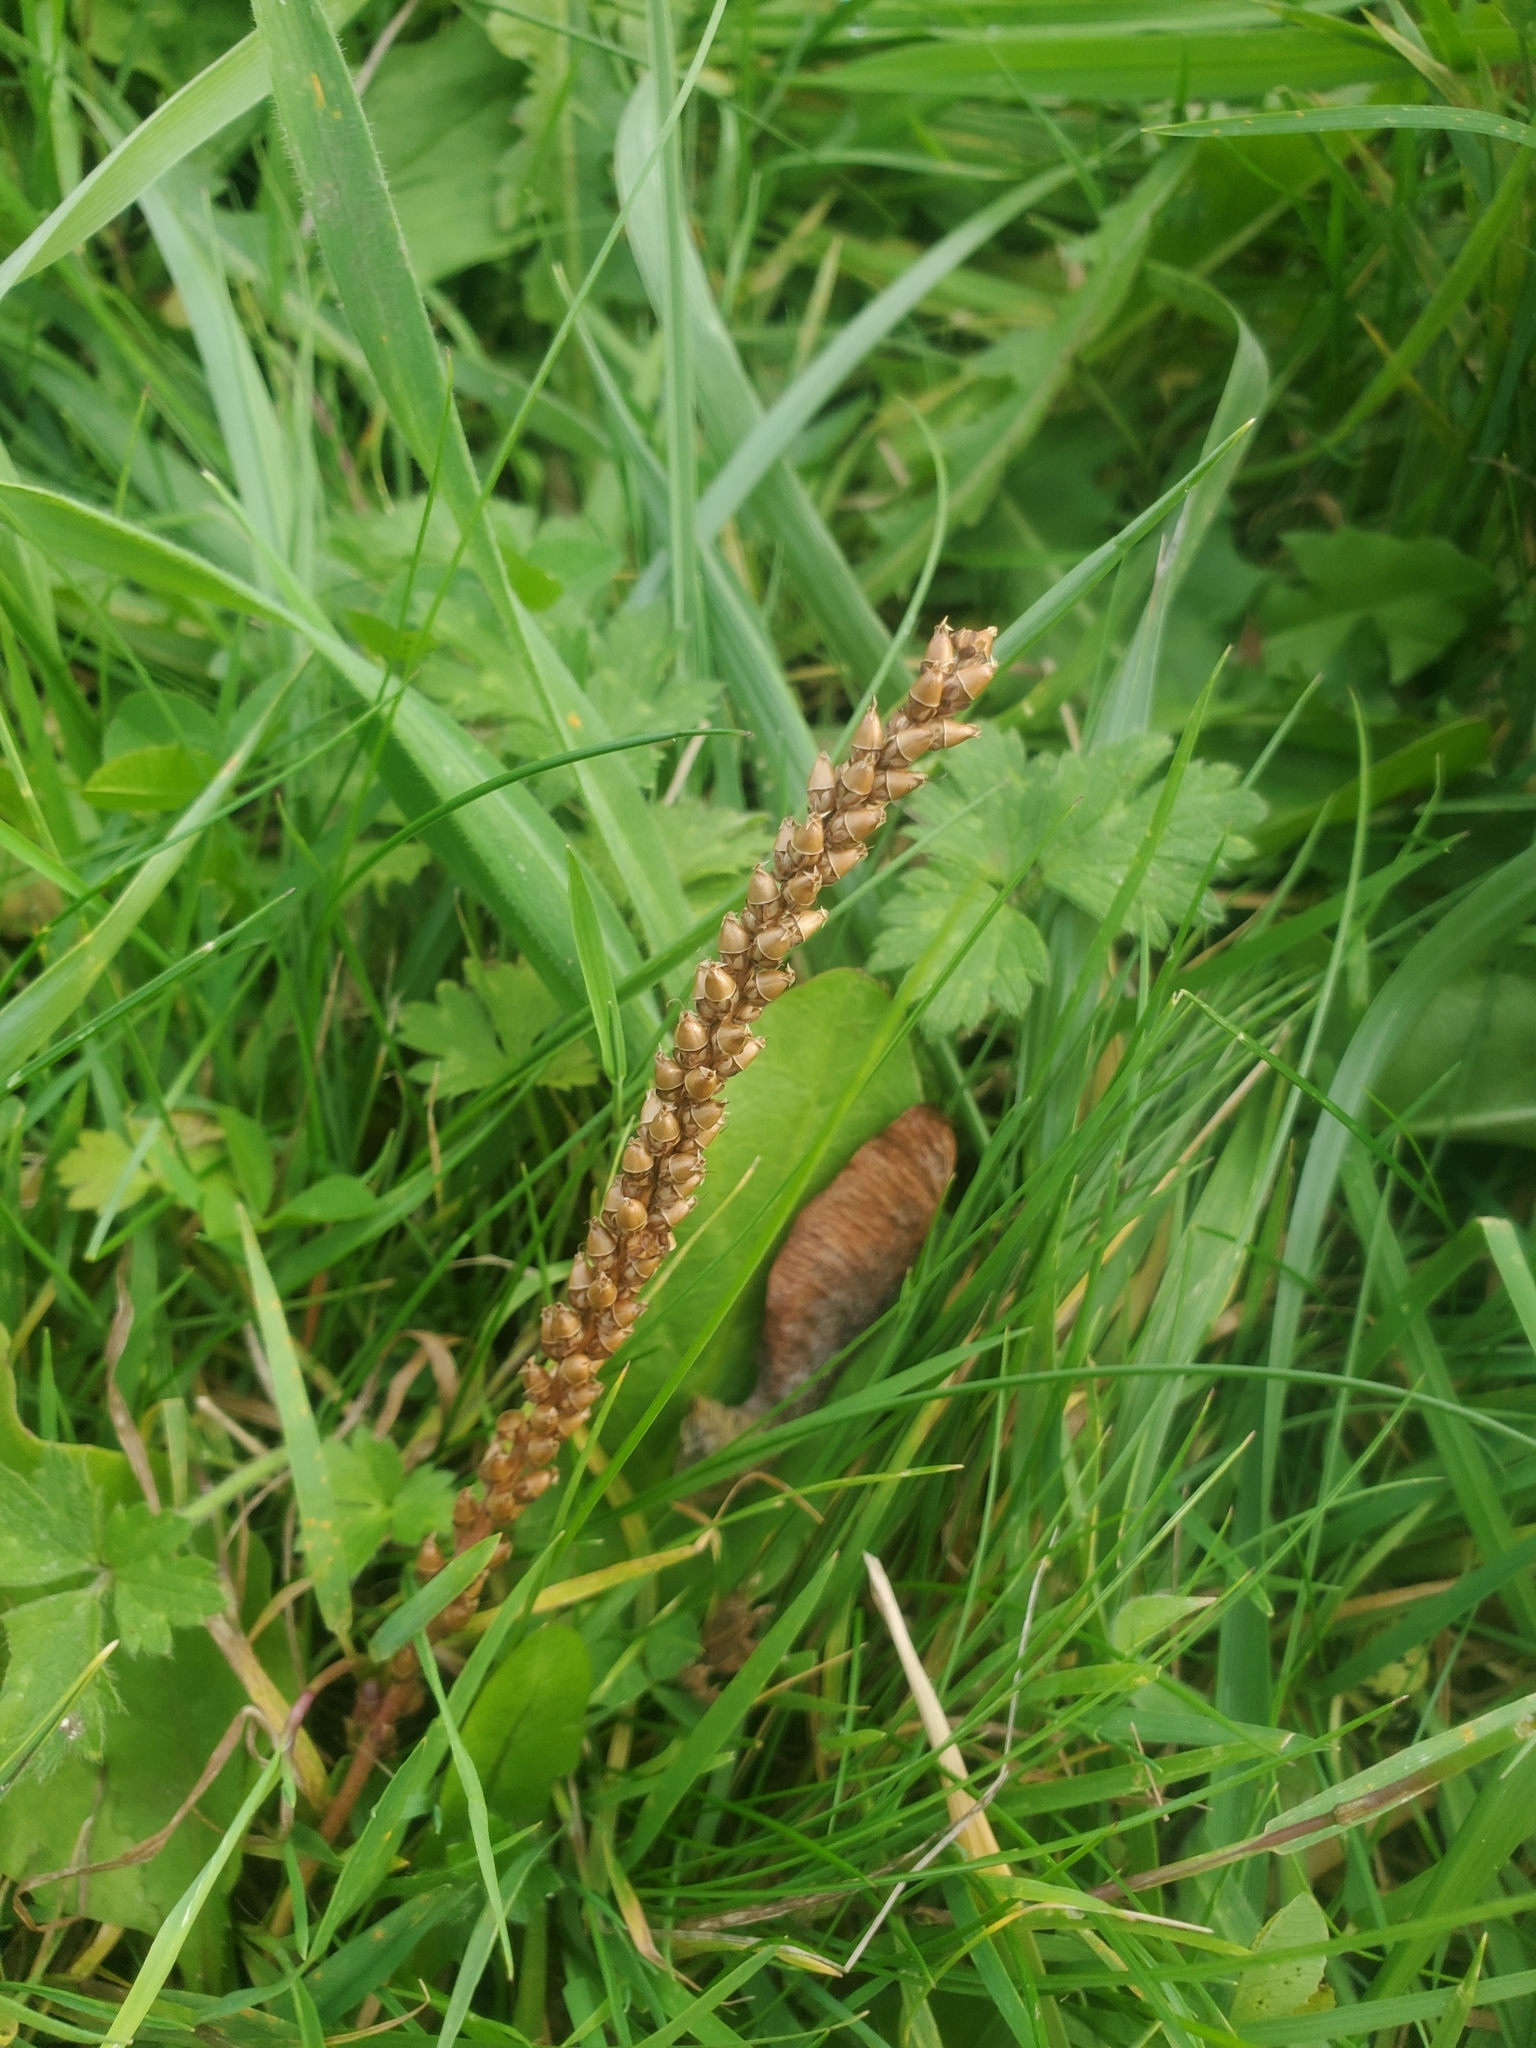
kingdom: Plantae
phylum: Tracheophyta
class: Magnoliopsida
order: Lamiales
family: Plantaginaceae
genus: Plantago
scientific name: Plantago major
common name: Common plantain
